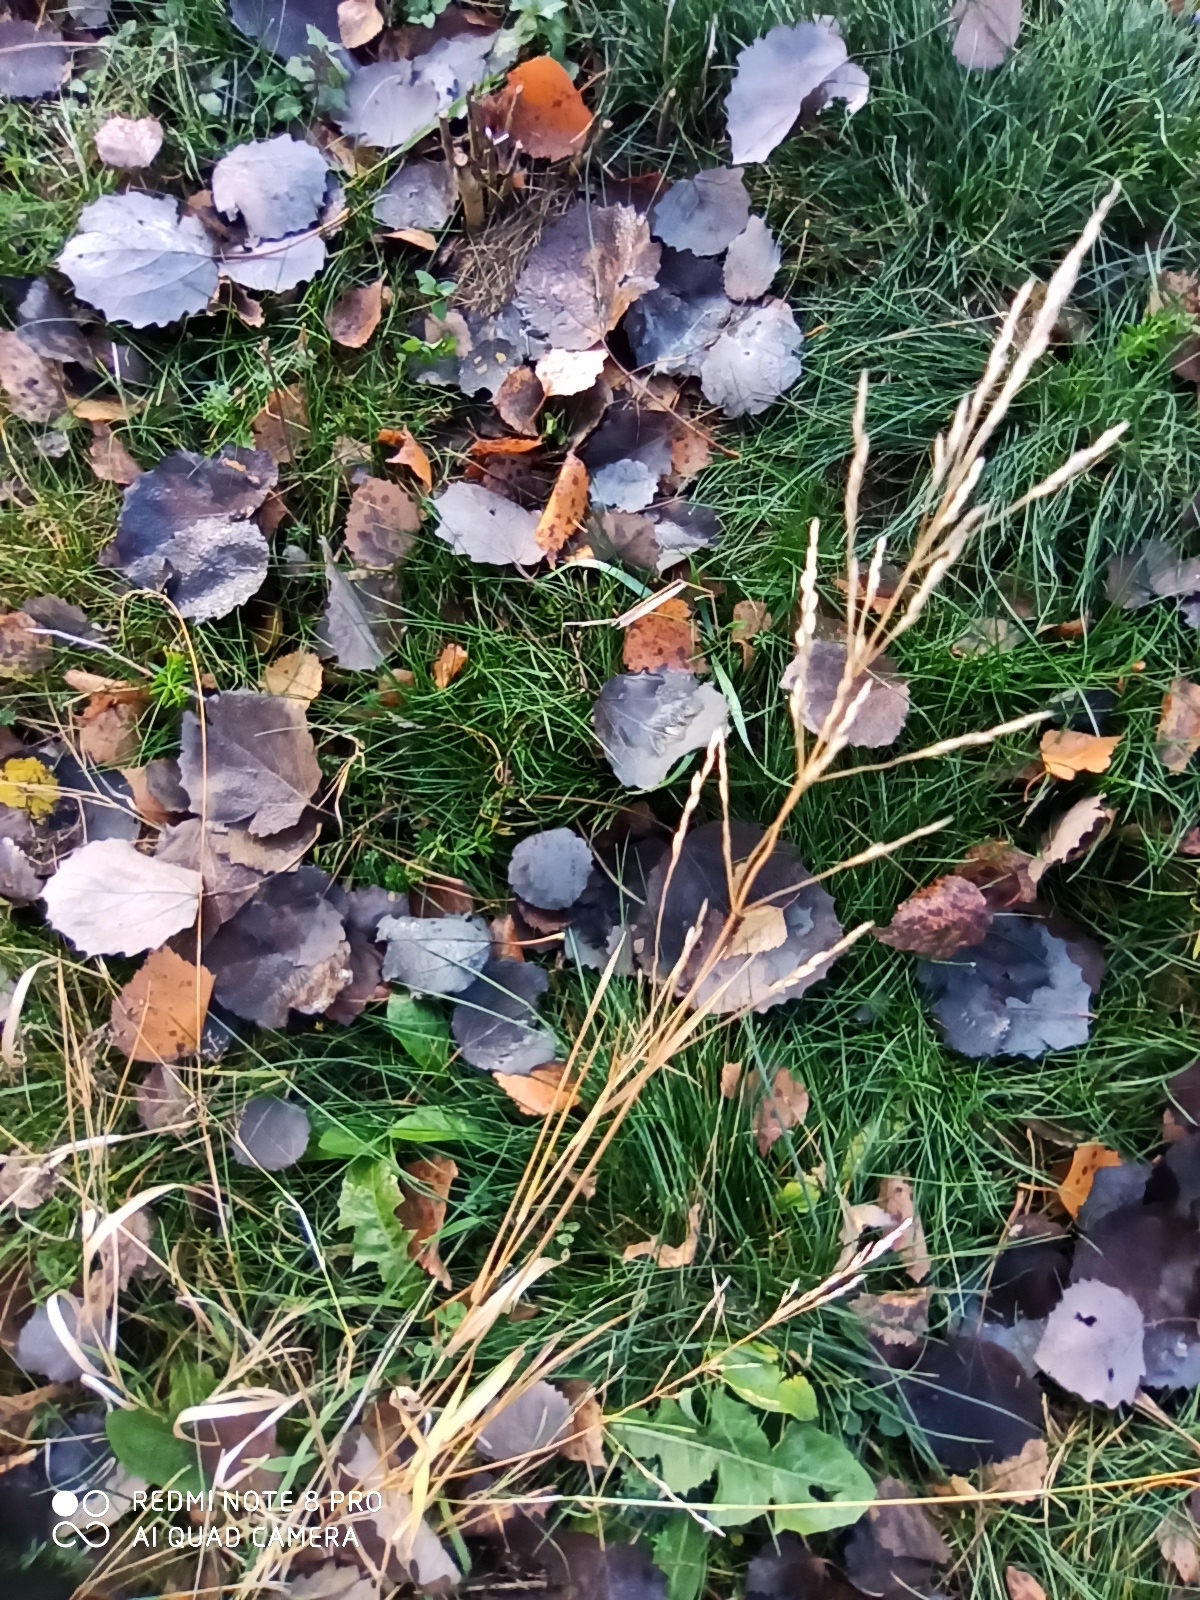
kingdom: Plantae
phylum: Tracheophyta
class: Liliopsida
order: Poales
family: Poaceae
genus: Poa
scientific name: Poa pratensis
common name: Kentucky bluegrass
